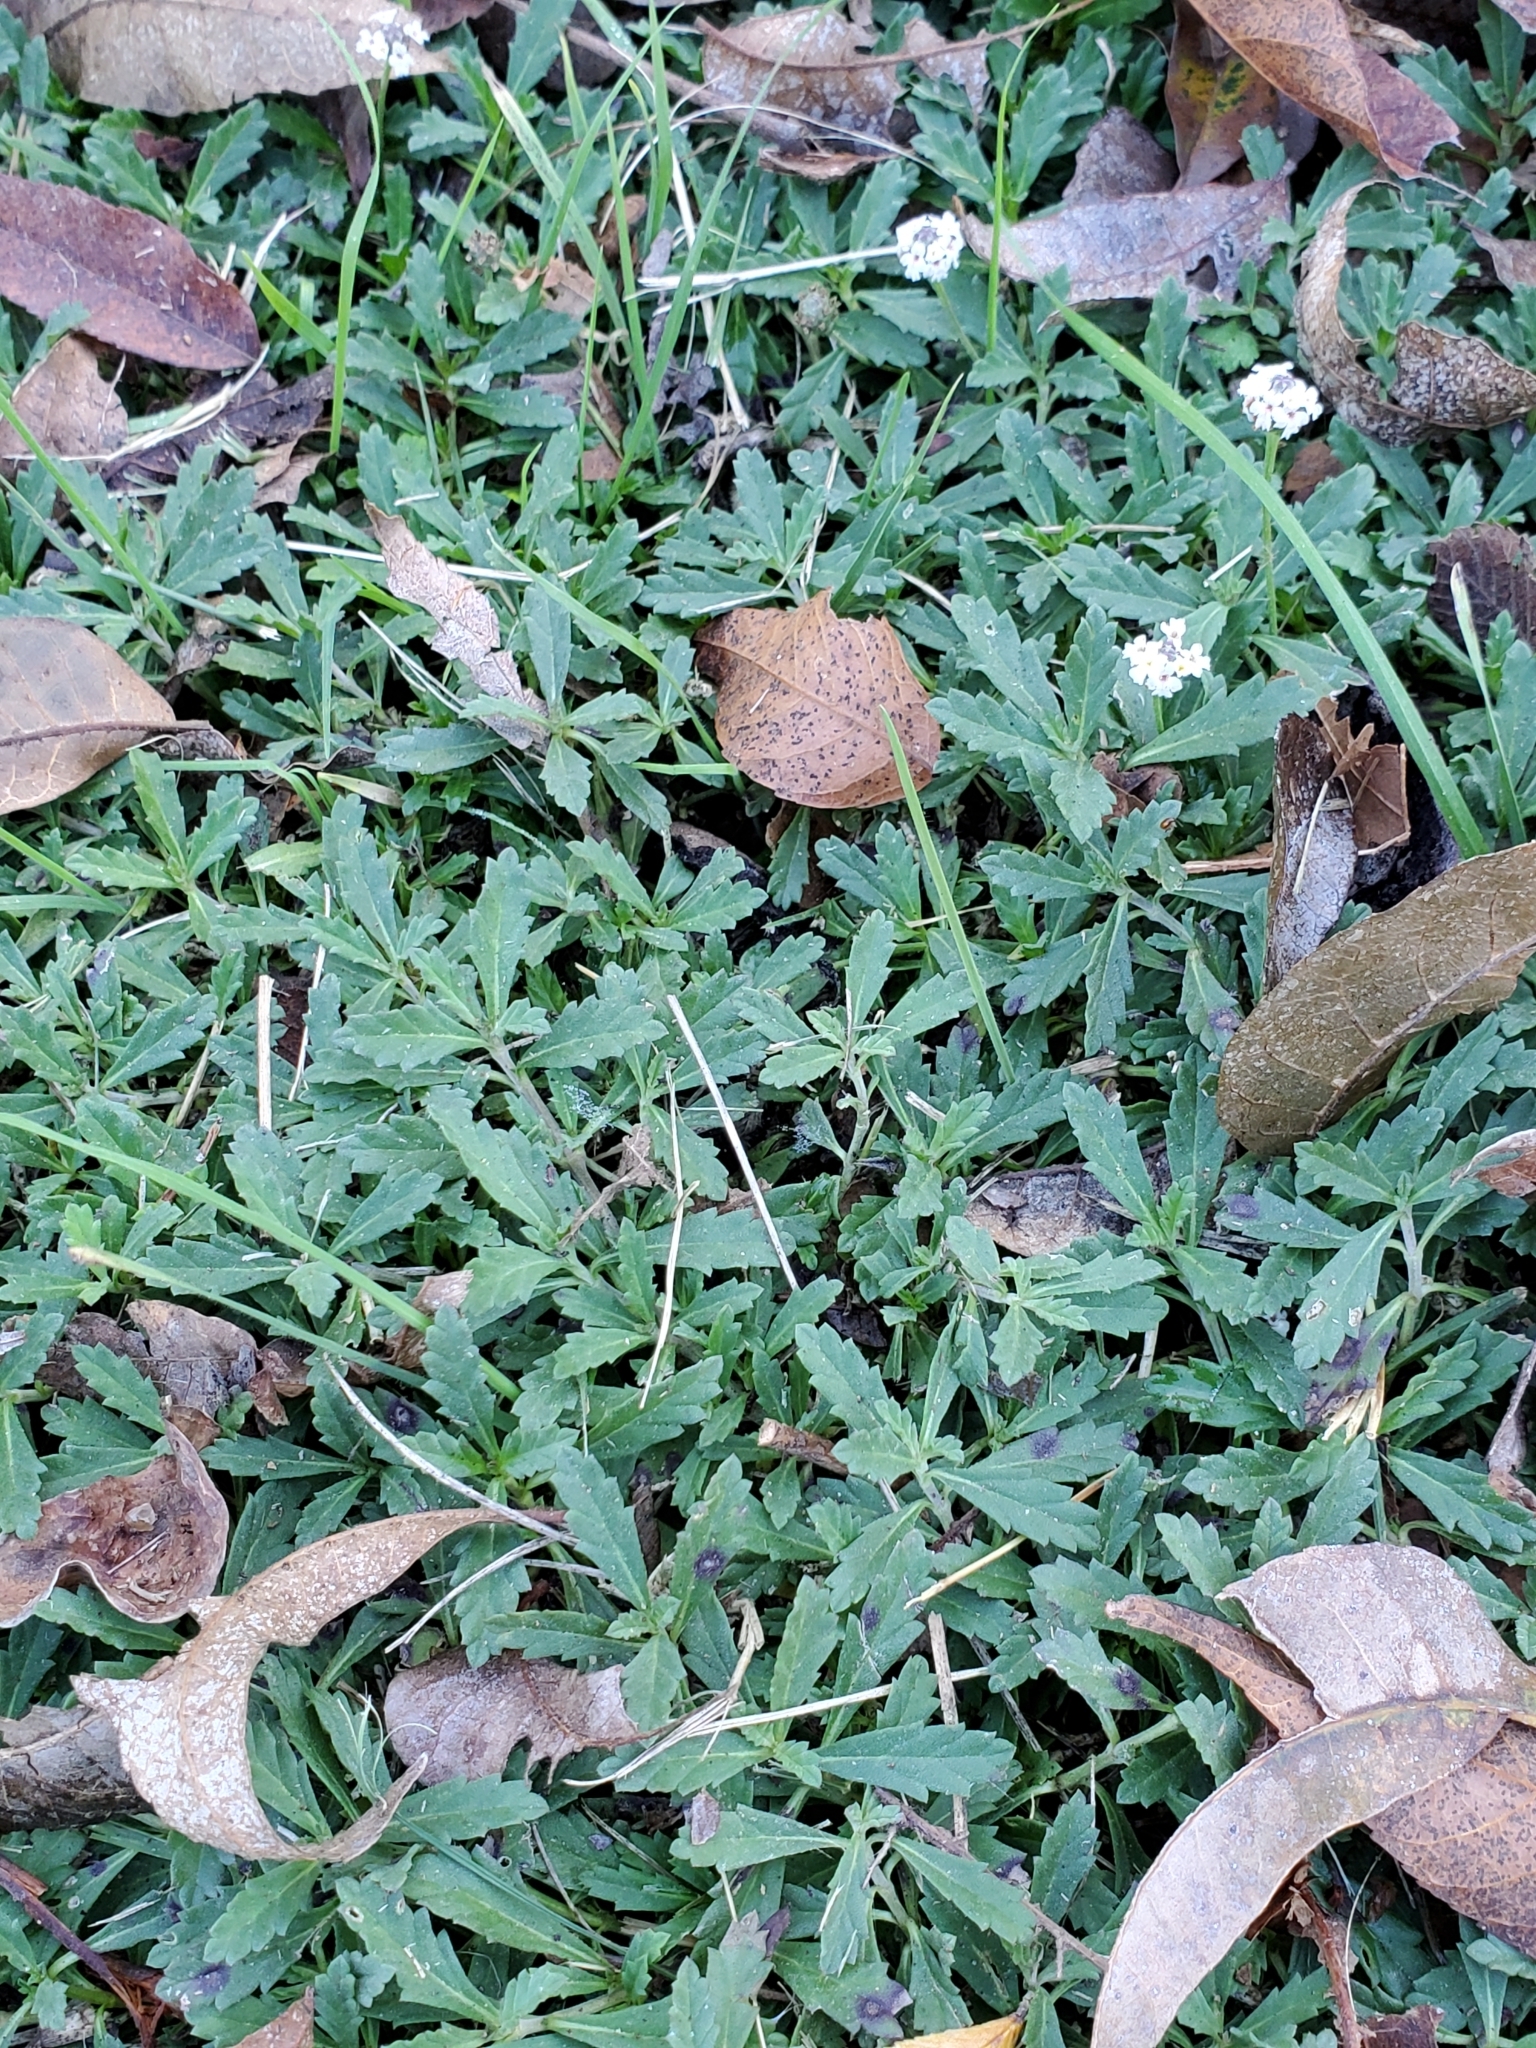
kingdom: Plantae
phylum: Tracheophyta
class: Magnoliopsida
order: Lamiales
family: Verbenaceae
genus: Phyla
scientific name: Phyla nodiflora
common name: Frogfruit
